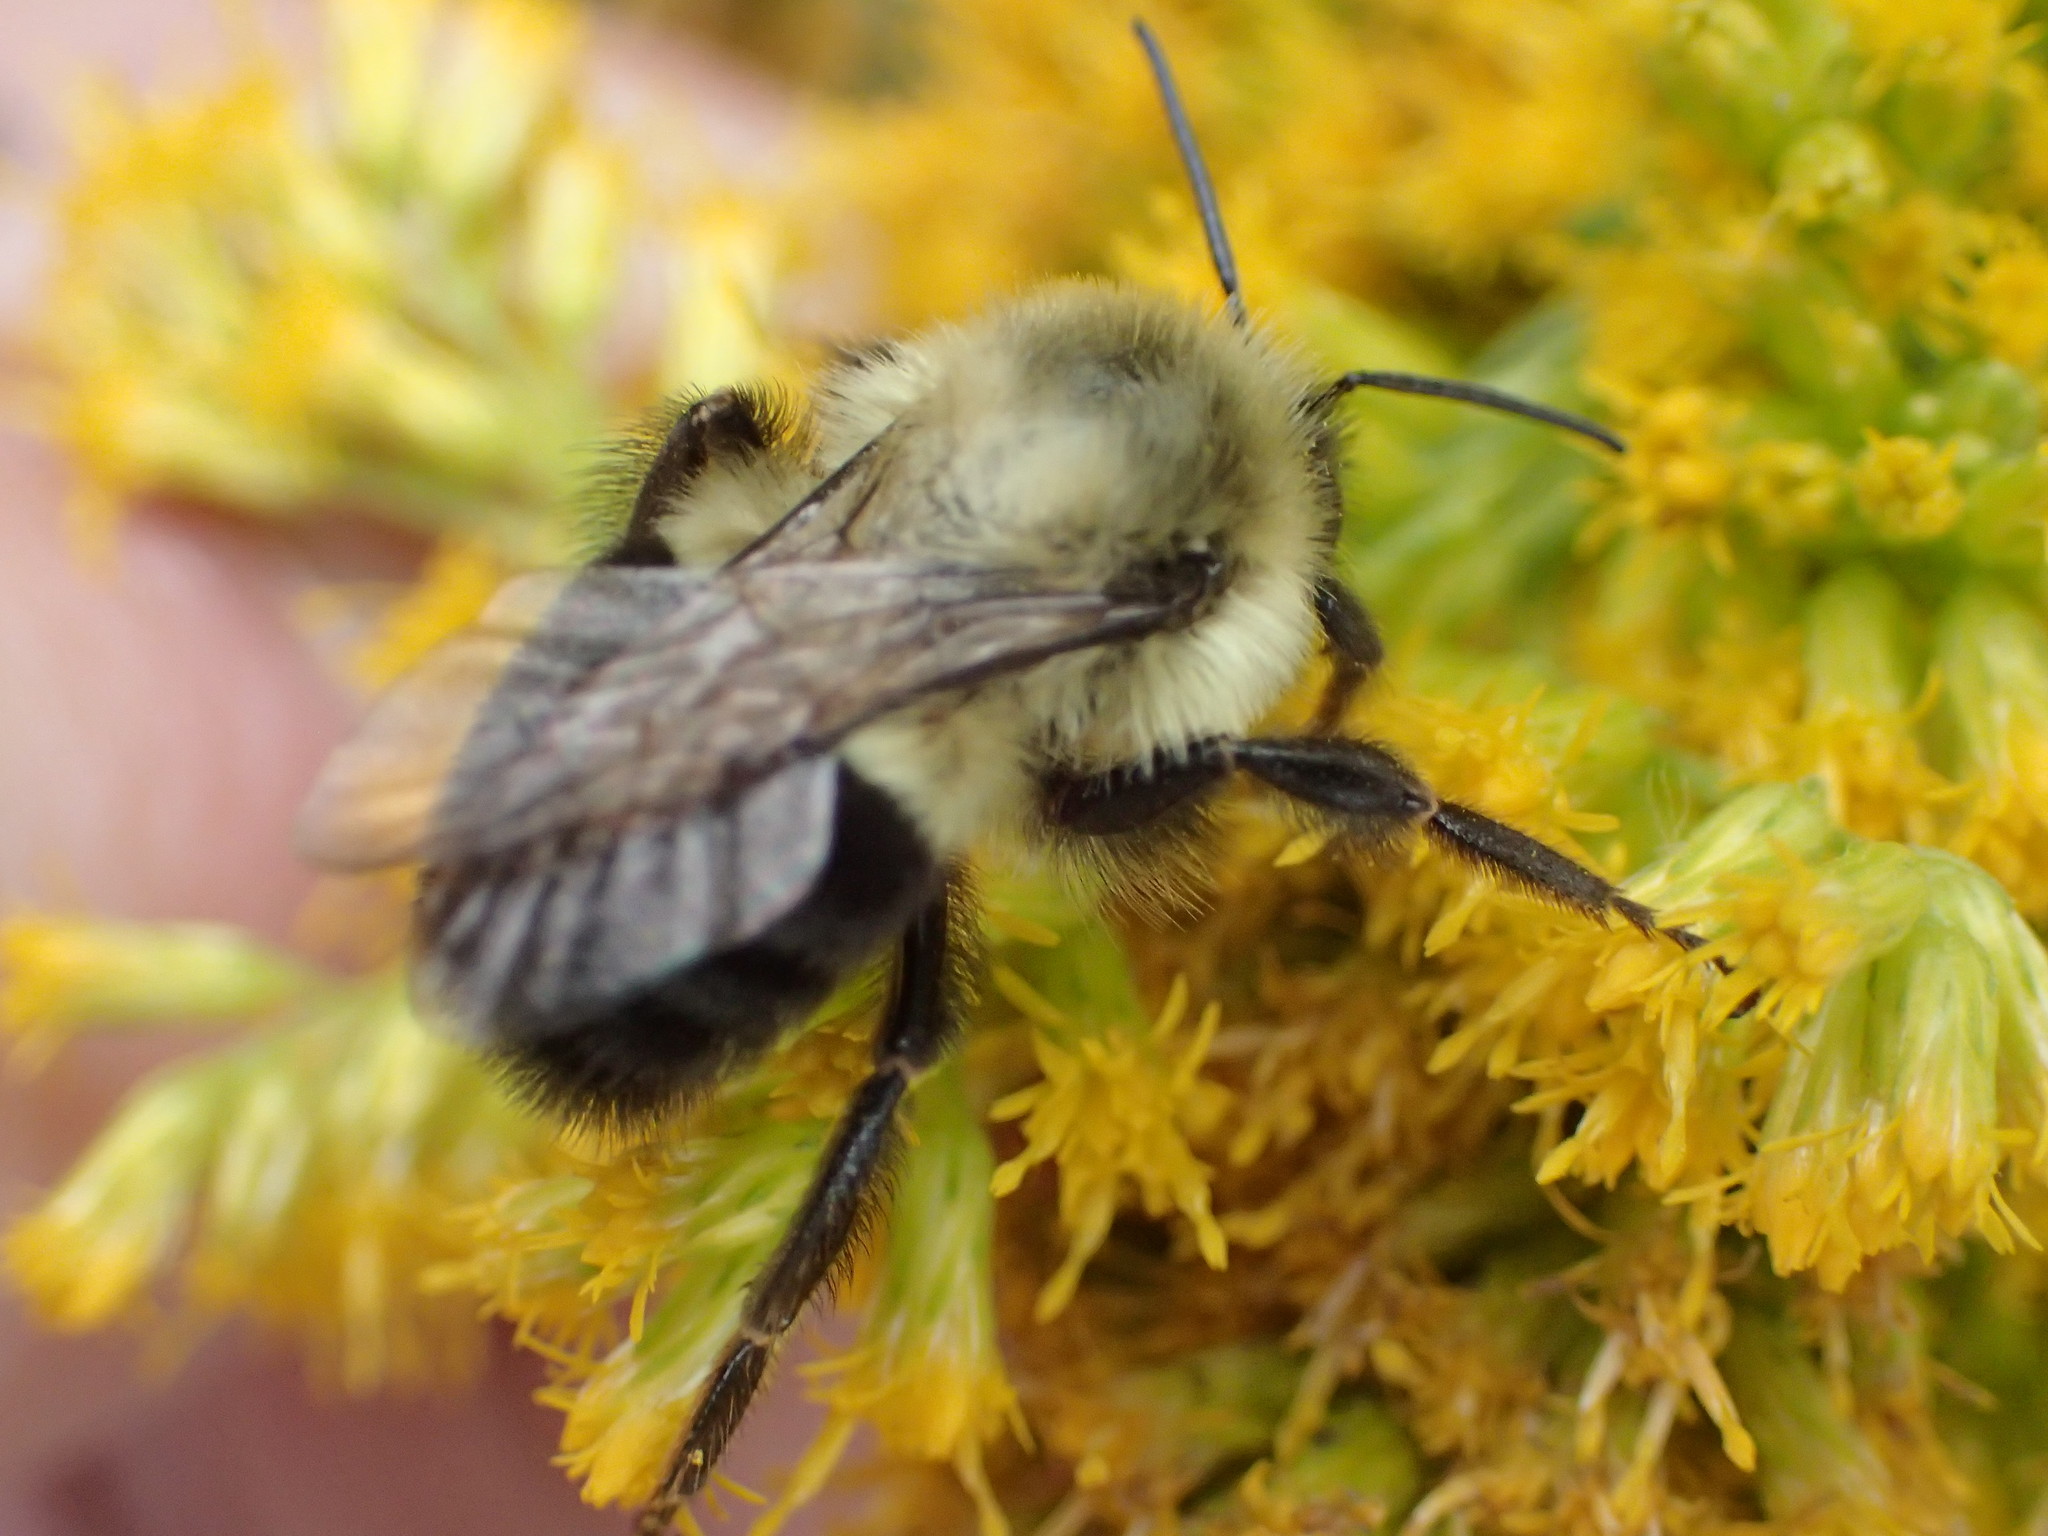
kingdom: Animalia
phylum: Arthropoda
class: Insecta
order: Hymenoptera
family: Apidae
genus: Bombus
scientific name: Bombus impatiens
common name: Common eastern bumble bee
